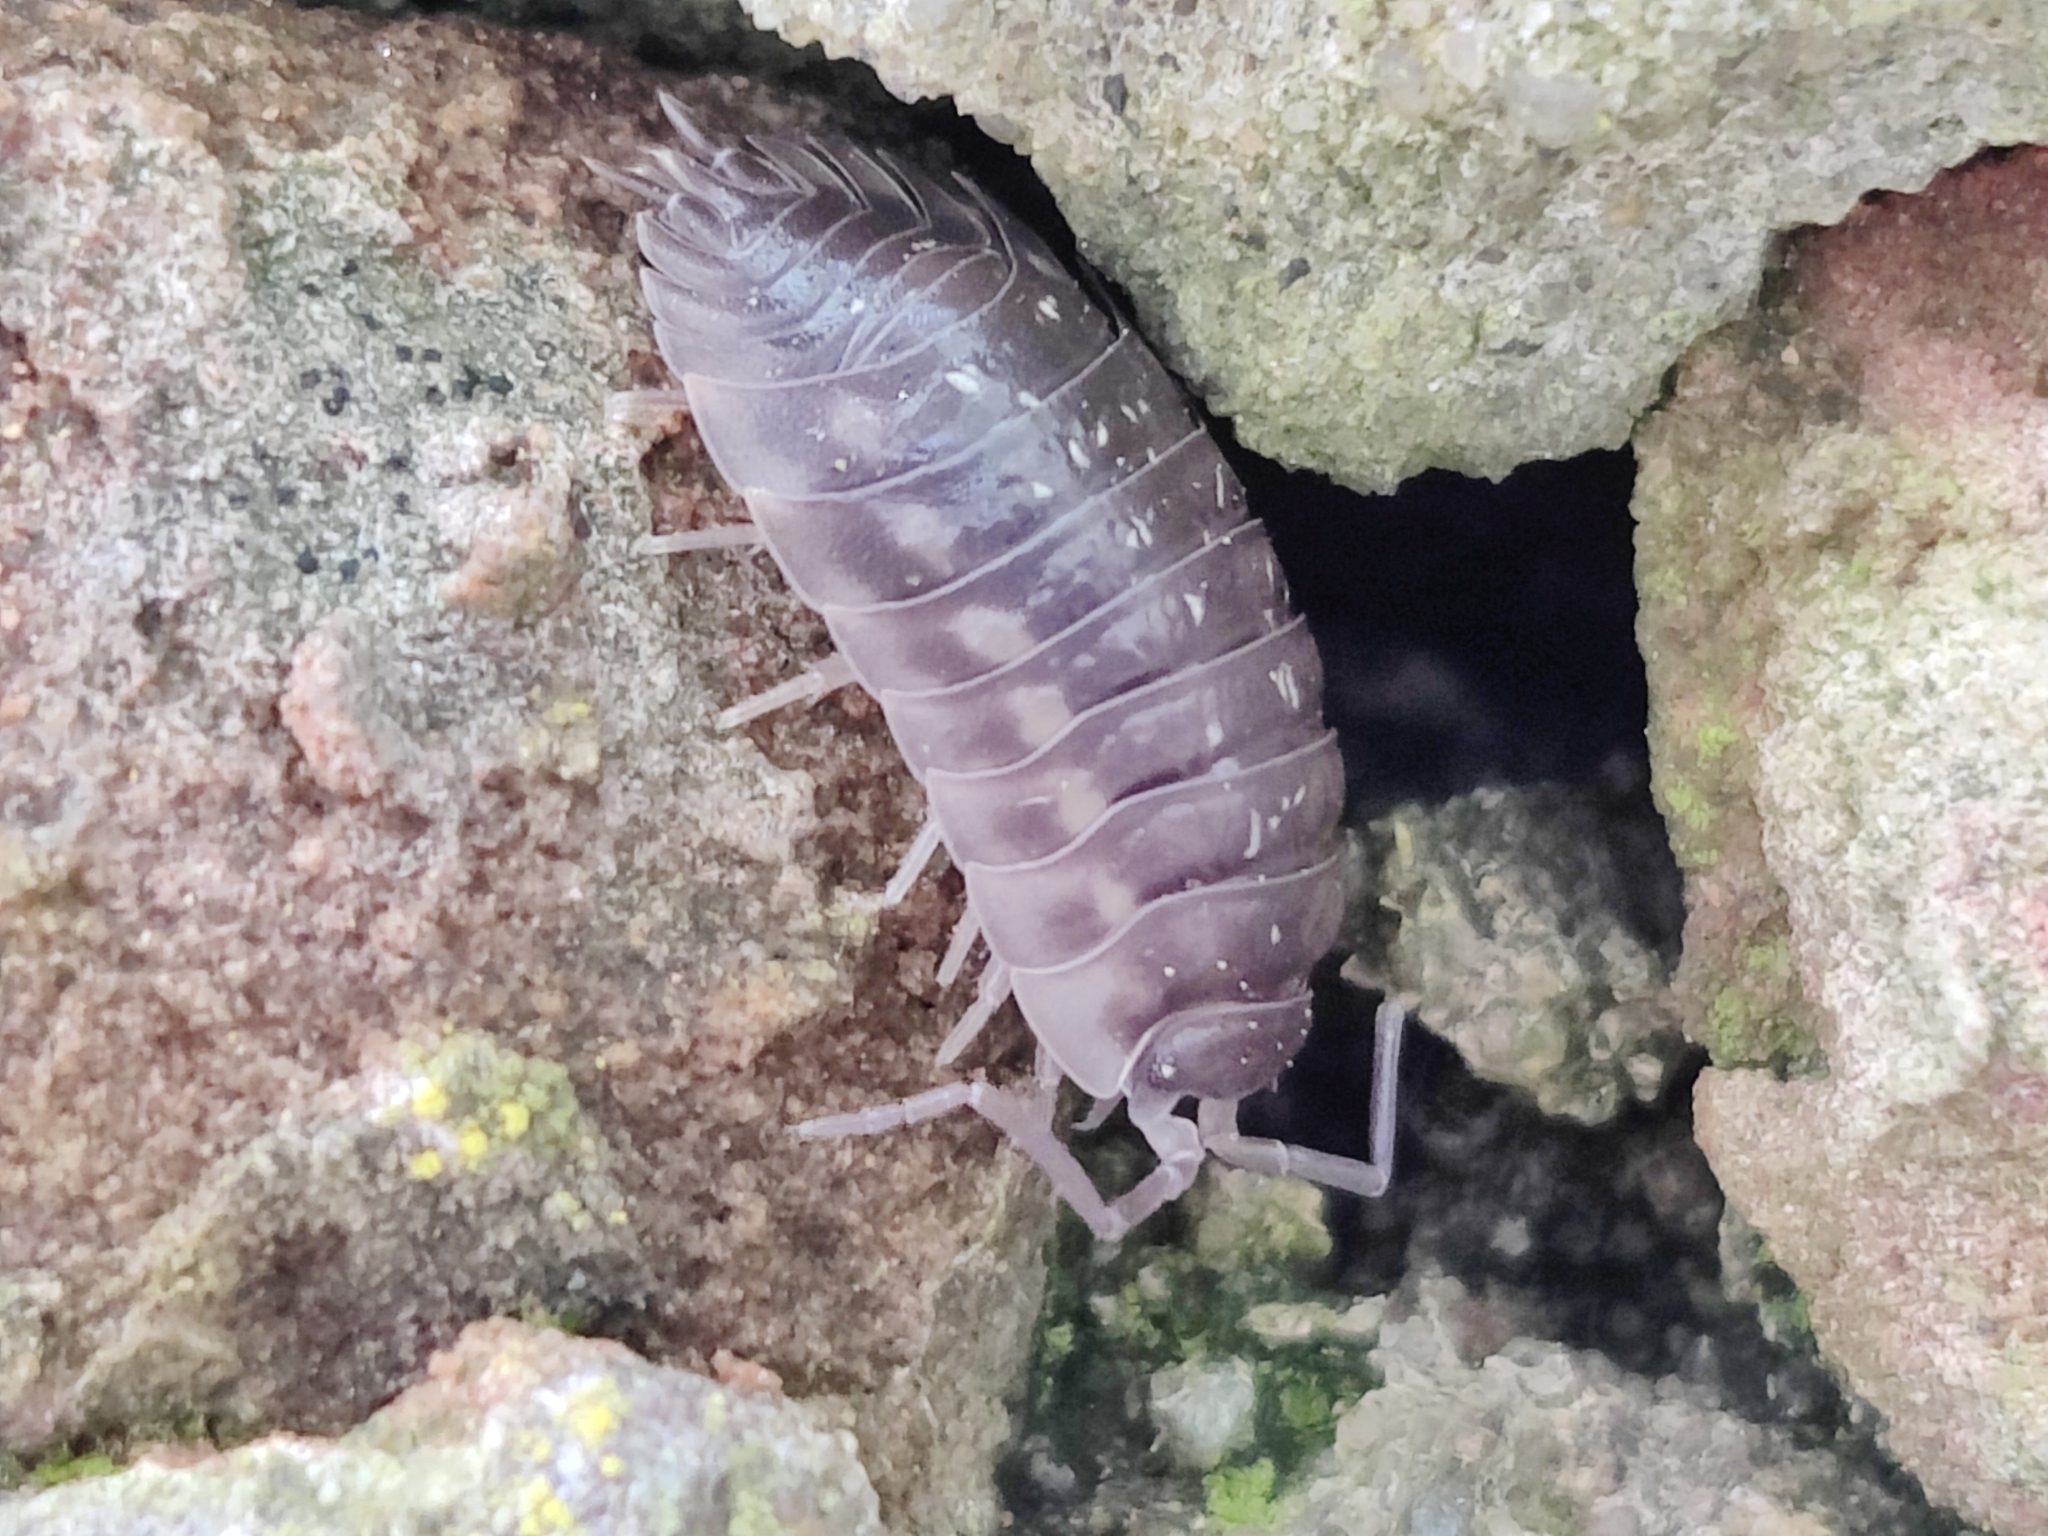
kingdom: Animalia
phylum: Arthropoda
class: Malacostraca
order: Isopoda
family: Oniscidae
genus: Oniscus
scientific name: Oniscus asellus
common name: Common shiny woodlouse
